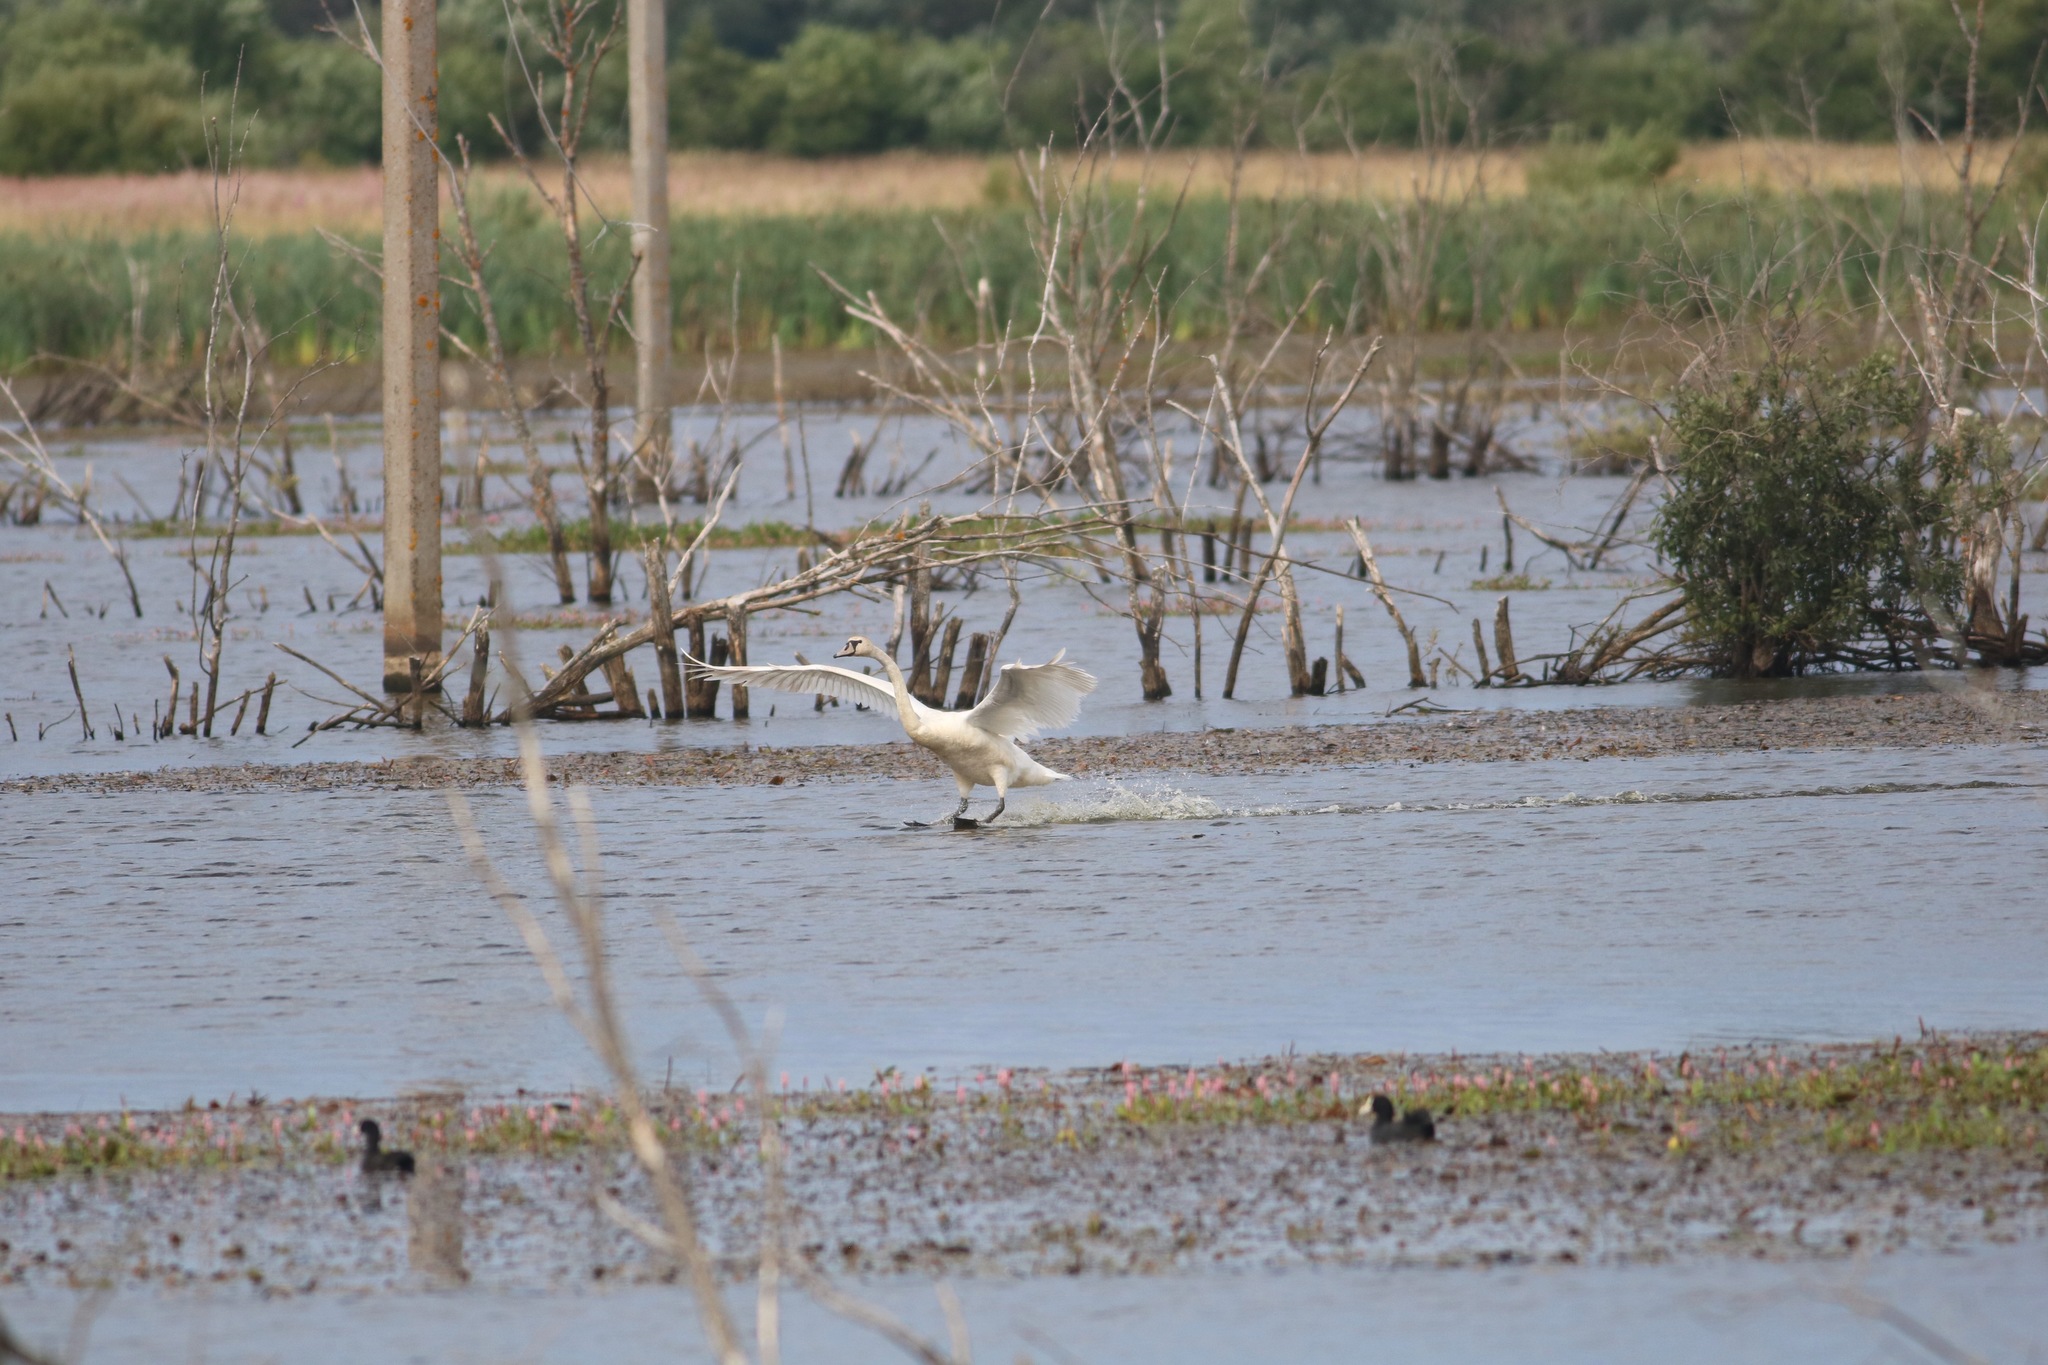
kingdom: Animalia
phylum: Chordata
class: Aves
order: Anseriformes
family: Anatidae
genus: Cygnus
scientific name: Cygnus olor
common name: Mute swan
